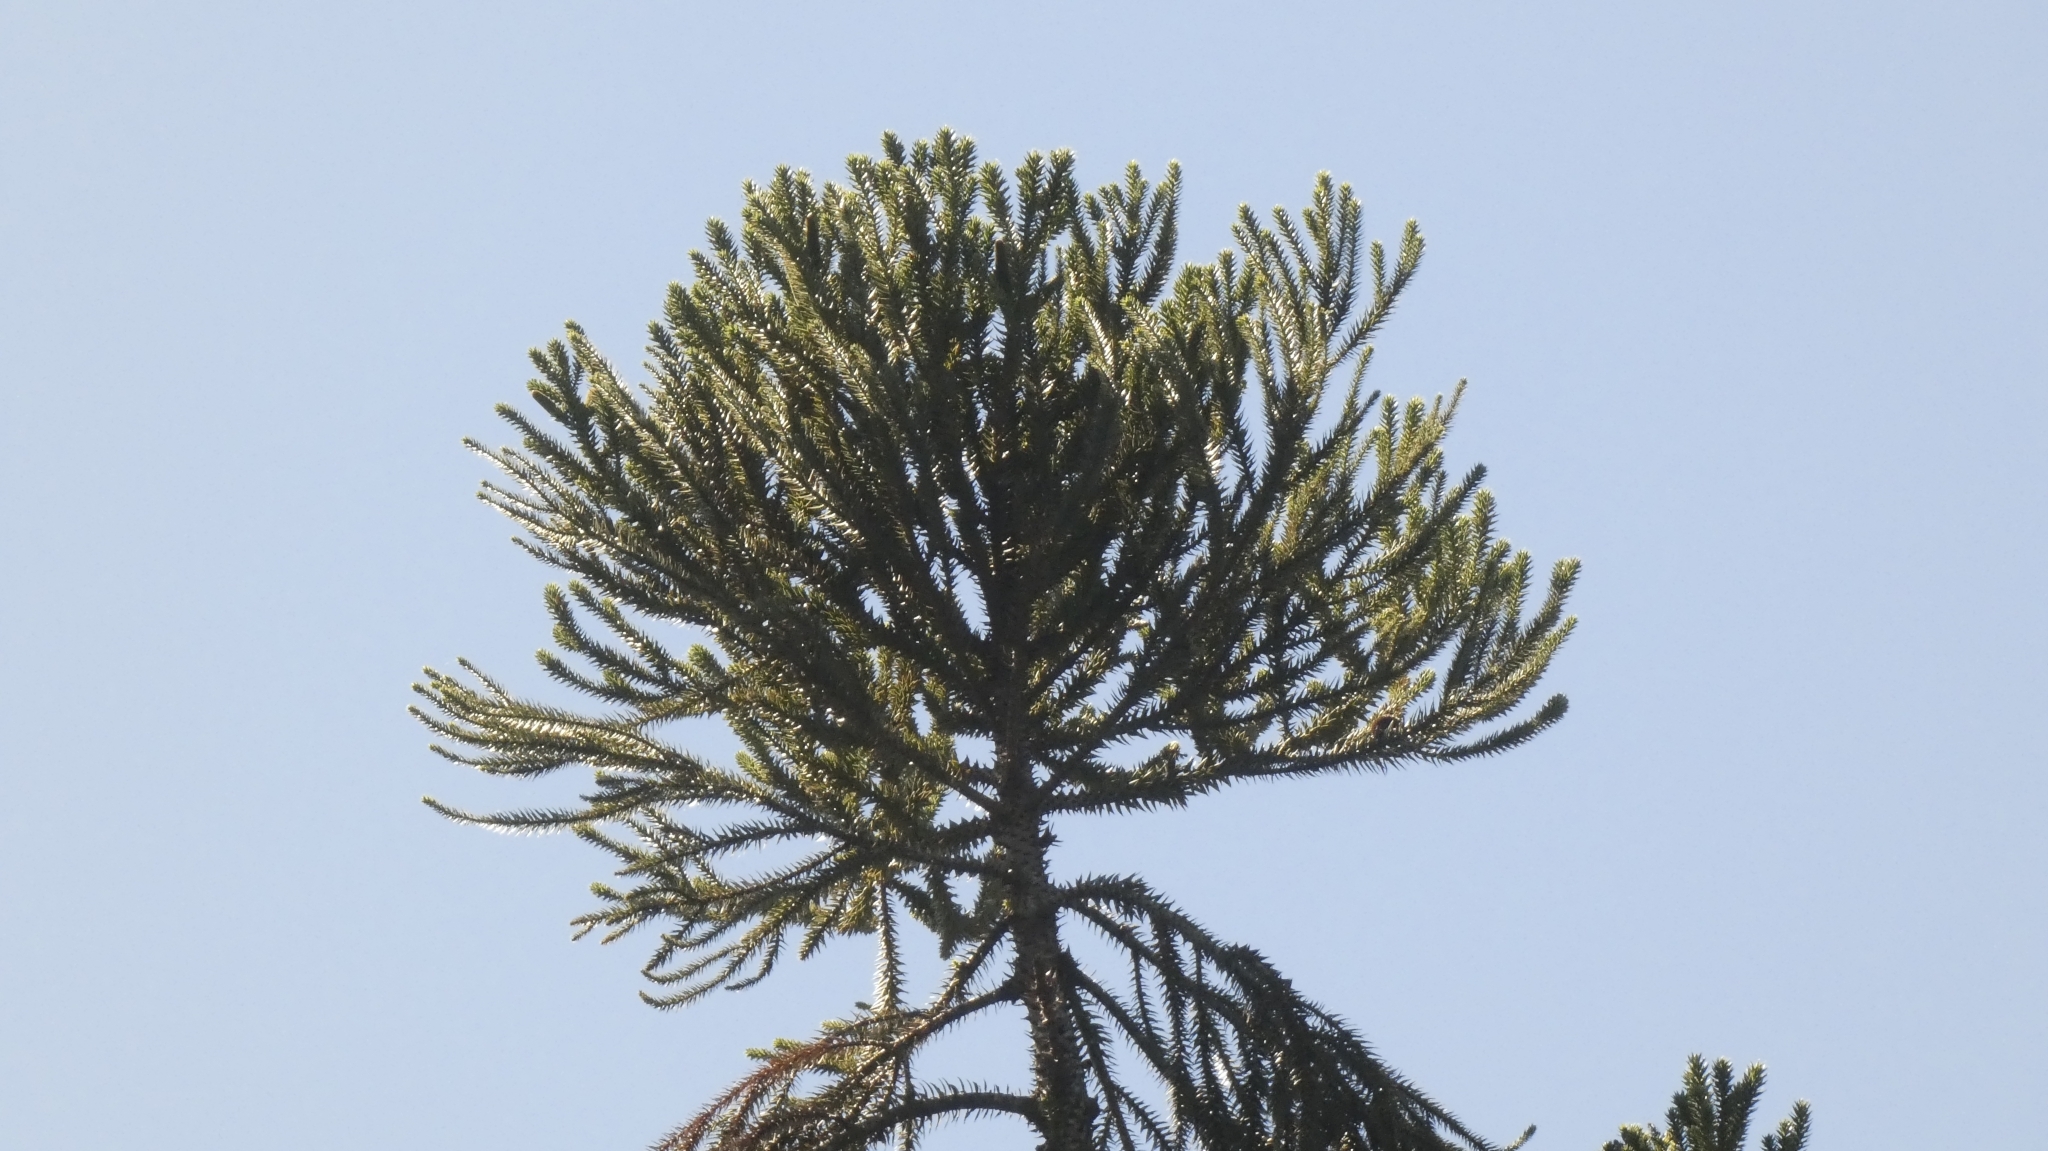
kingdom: Plantae
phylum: Tracheophyta
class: Pinopsida
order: Pinales
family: Araucariaceae
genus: Araucaria
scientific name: Araucaria angustifolia
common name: Candelabra tree
